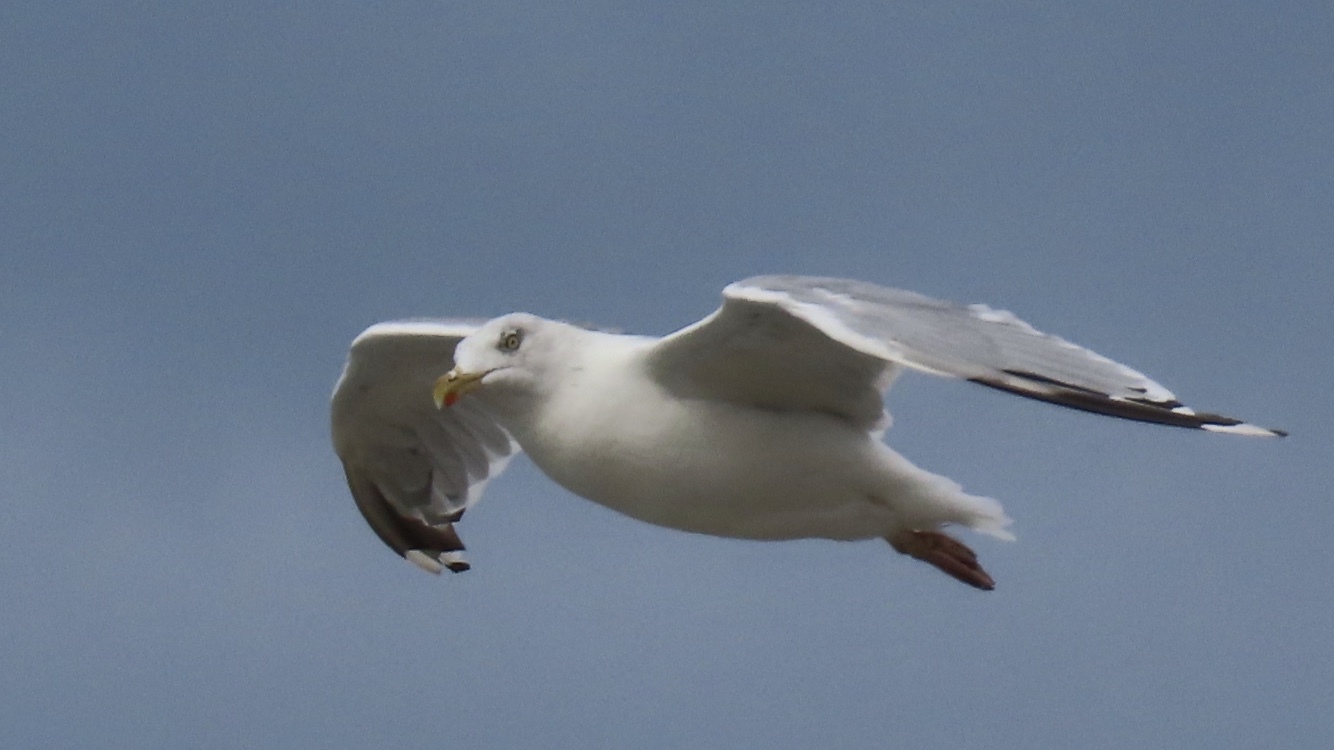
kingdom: Animalia
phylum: Chordata
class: Aves
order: Charadriiformes
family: Laridae
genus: Larus
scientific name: Larus argentatus
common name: Herring gull
